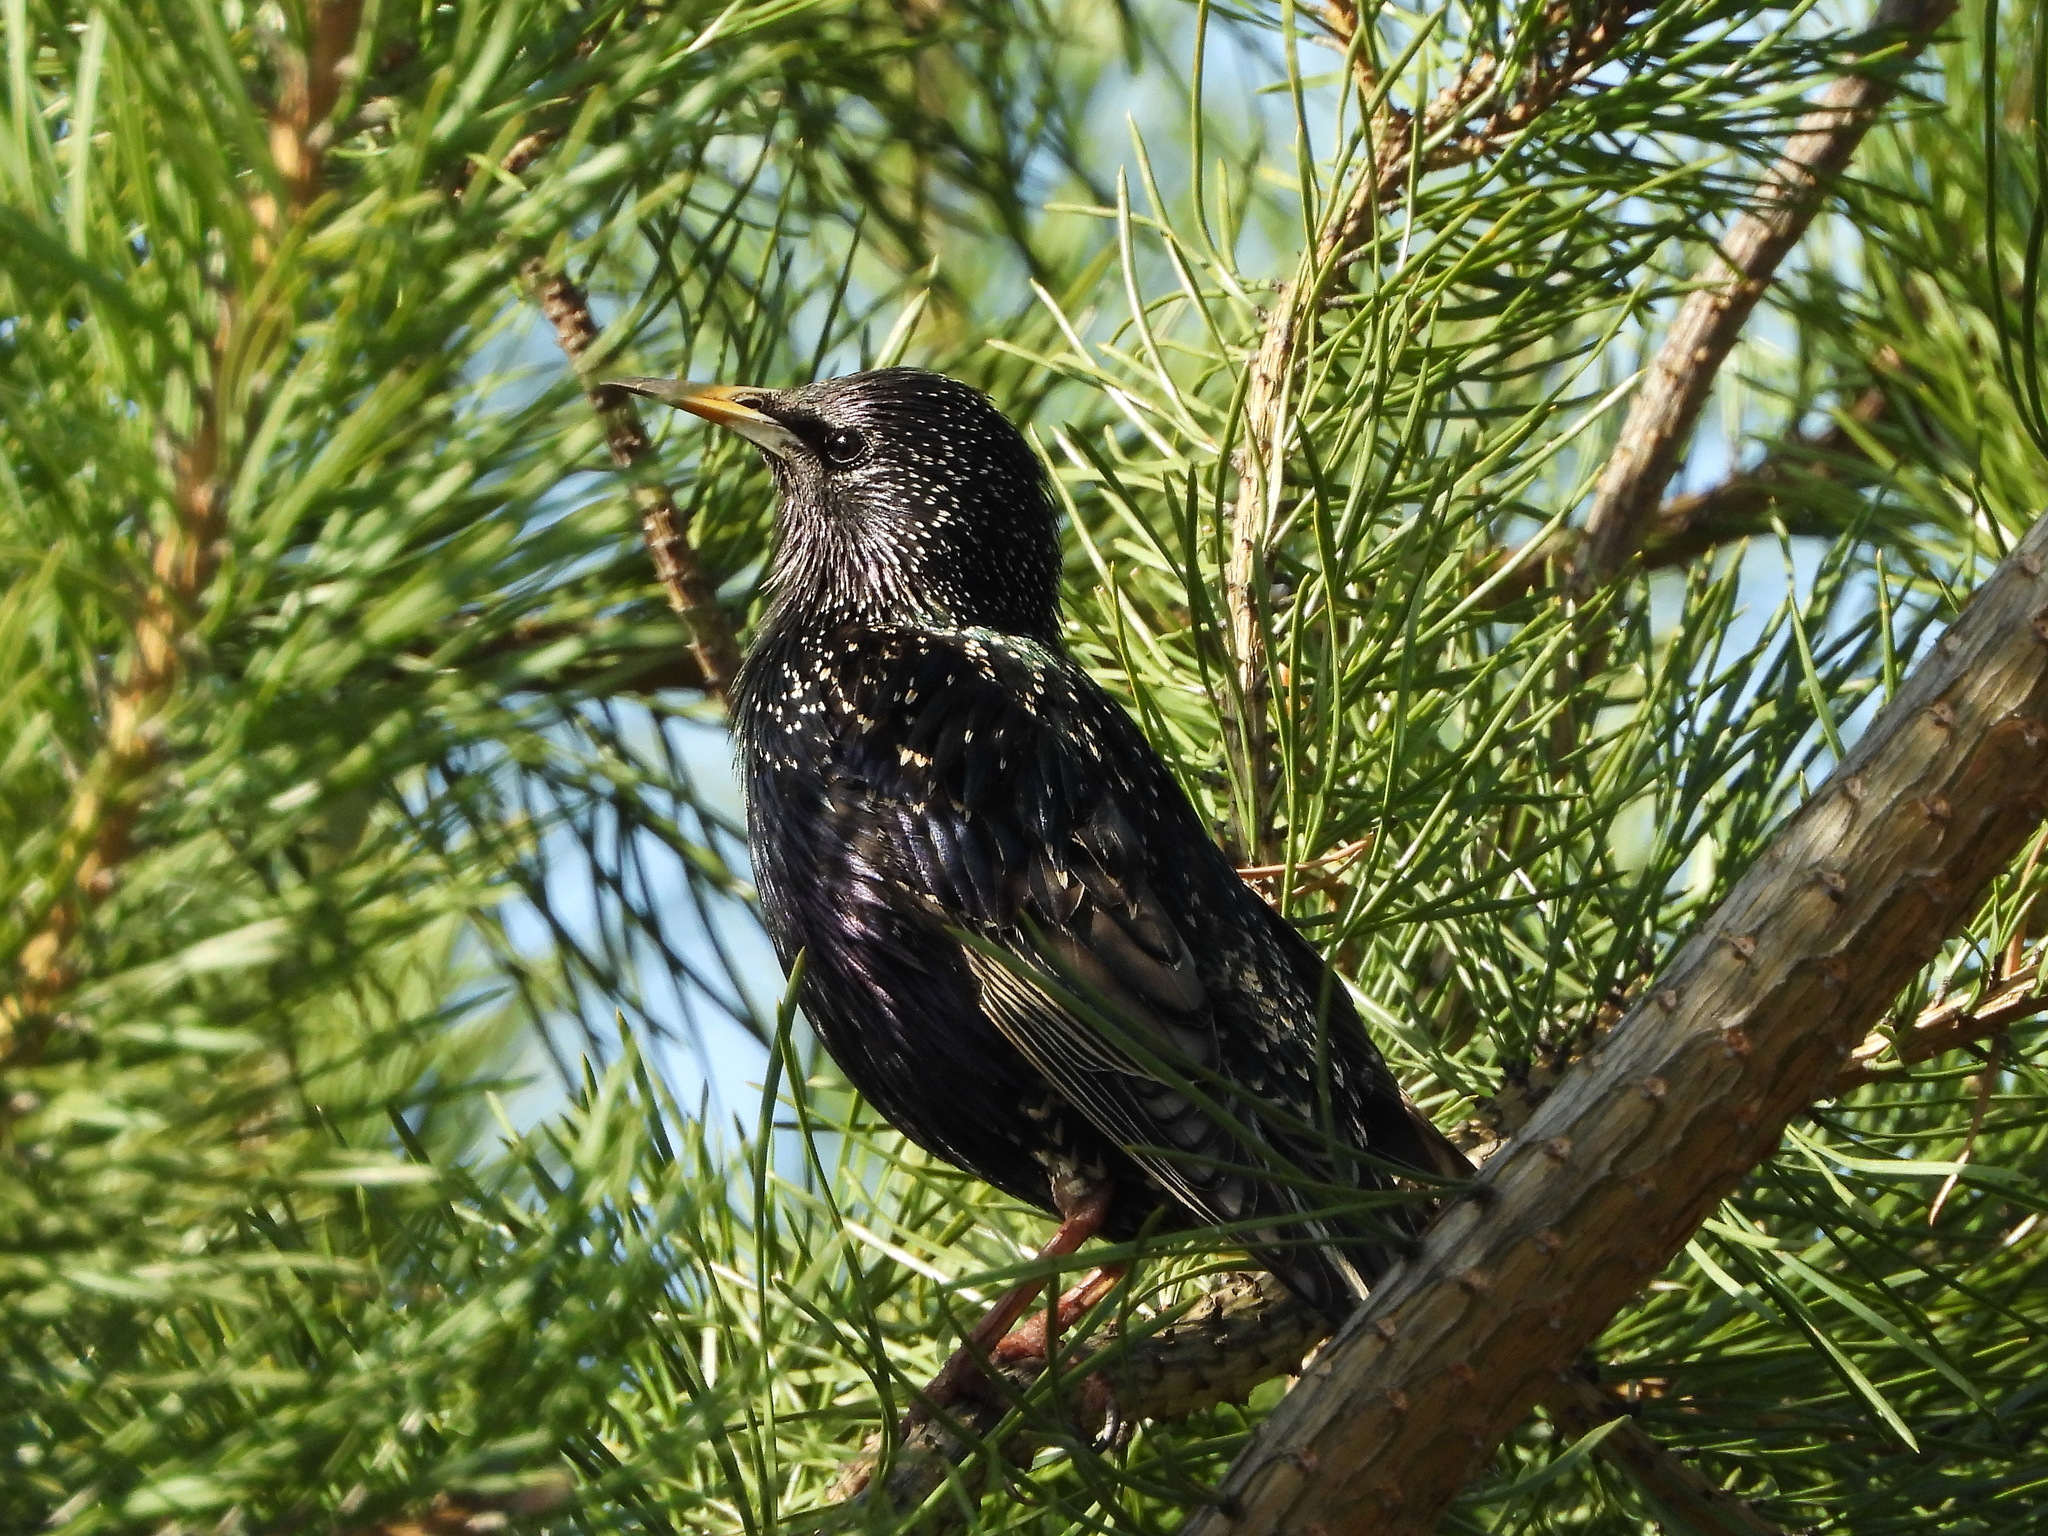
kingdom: Animalia
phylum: Chordata
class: Aves
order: Passeriformes
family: Sturnidae
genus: Sturnus
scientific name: Sturnus vulgaris
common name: Common starling
